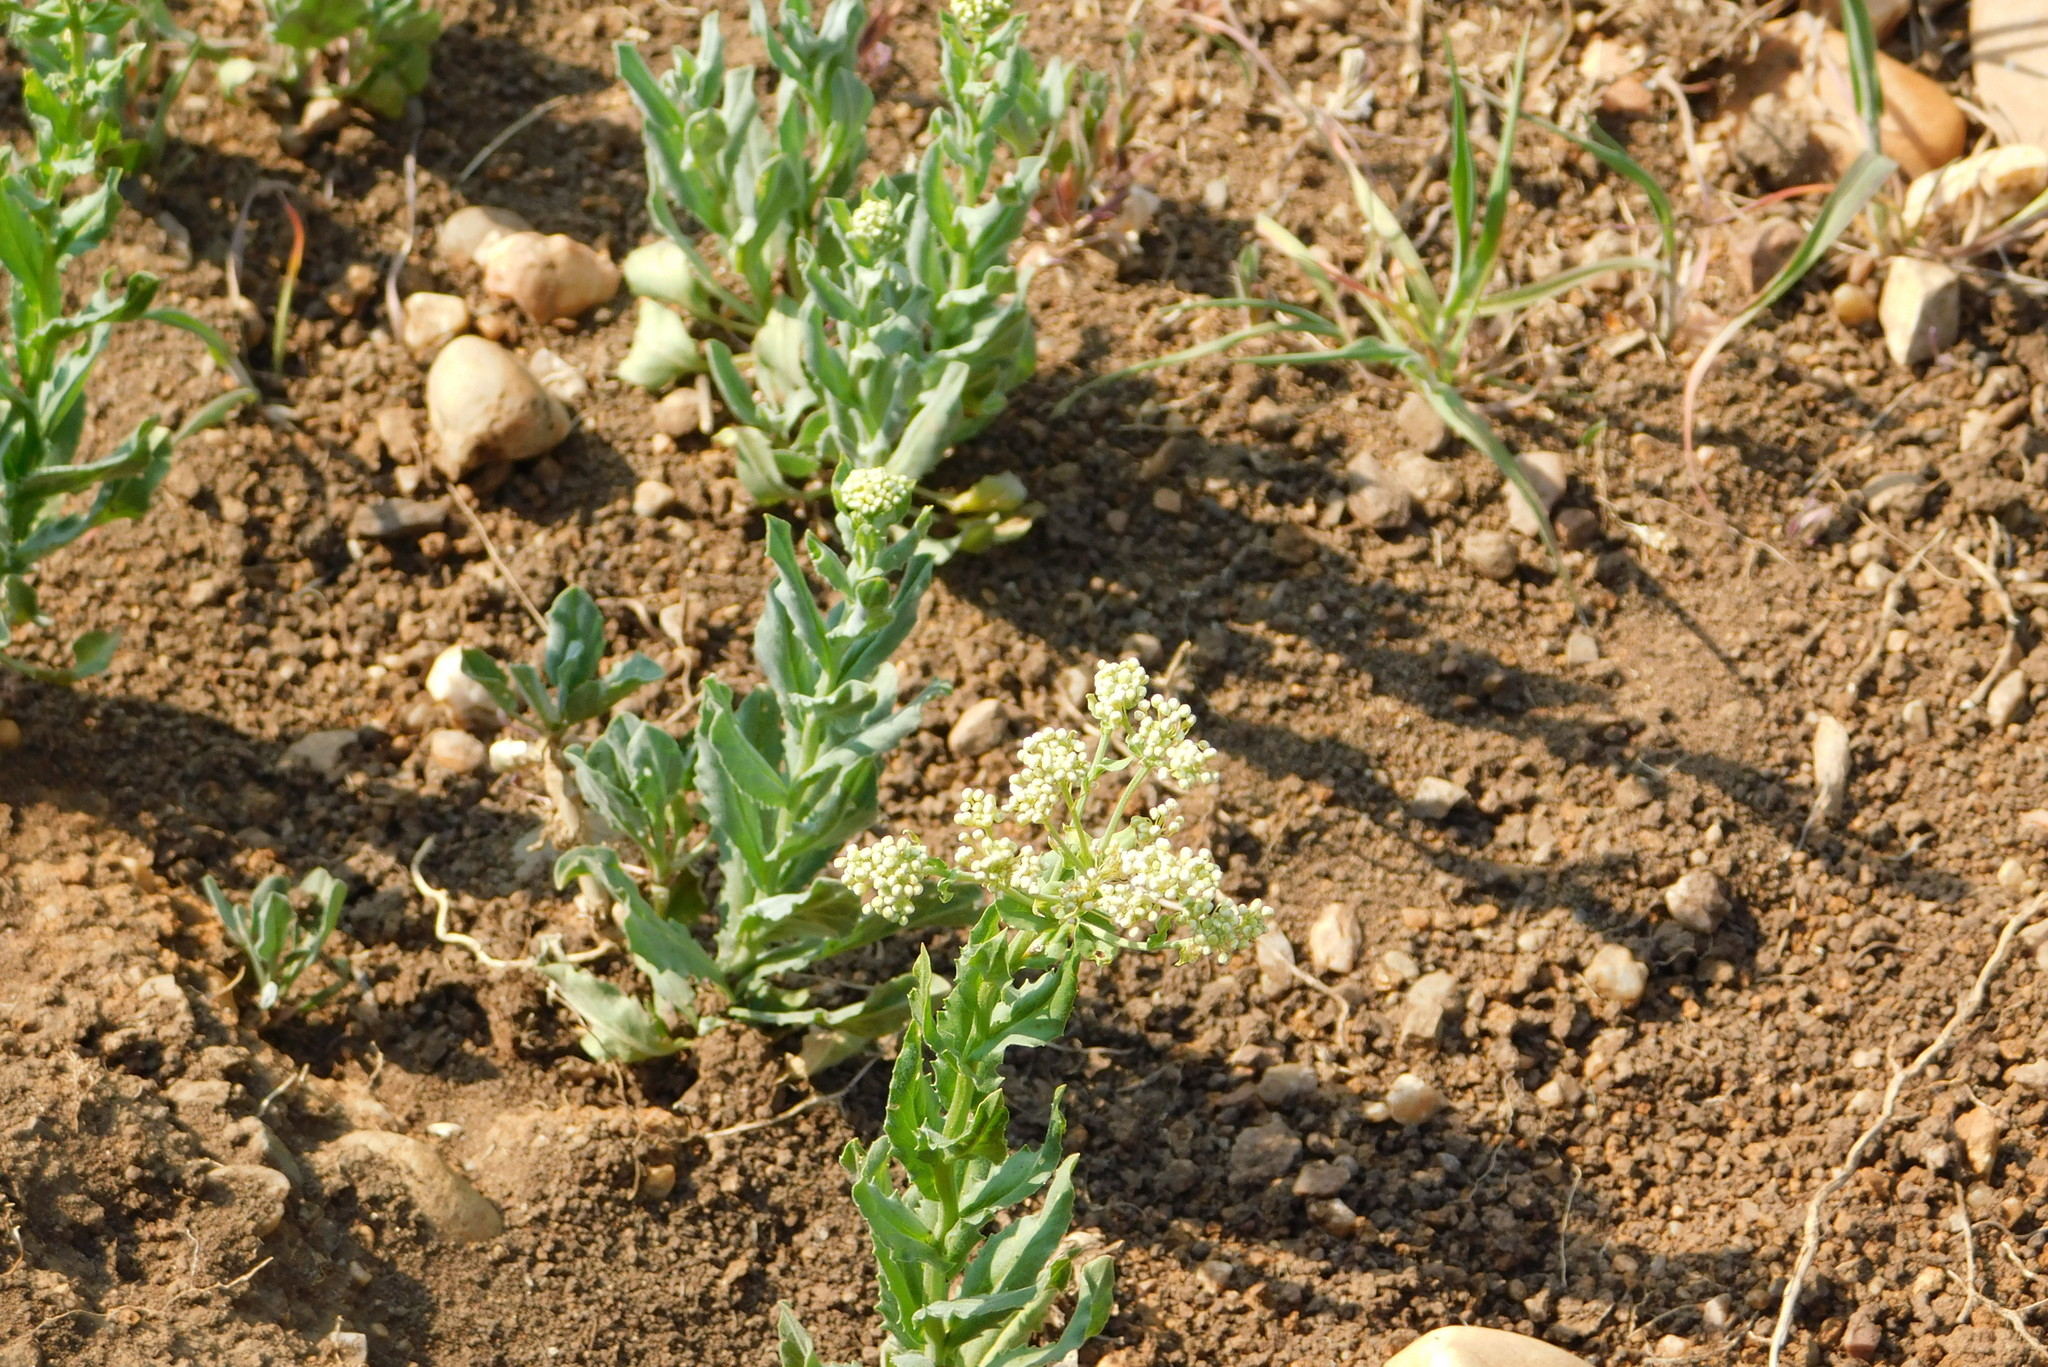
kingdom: Plantae
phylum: Tracheophyta
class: Magnoliopsida
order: Brassicales
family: Brassicaceae
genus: Lepidium
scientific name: Lepidium draba
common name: Hoary cress
